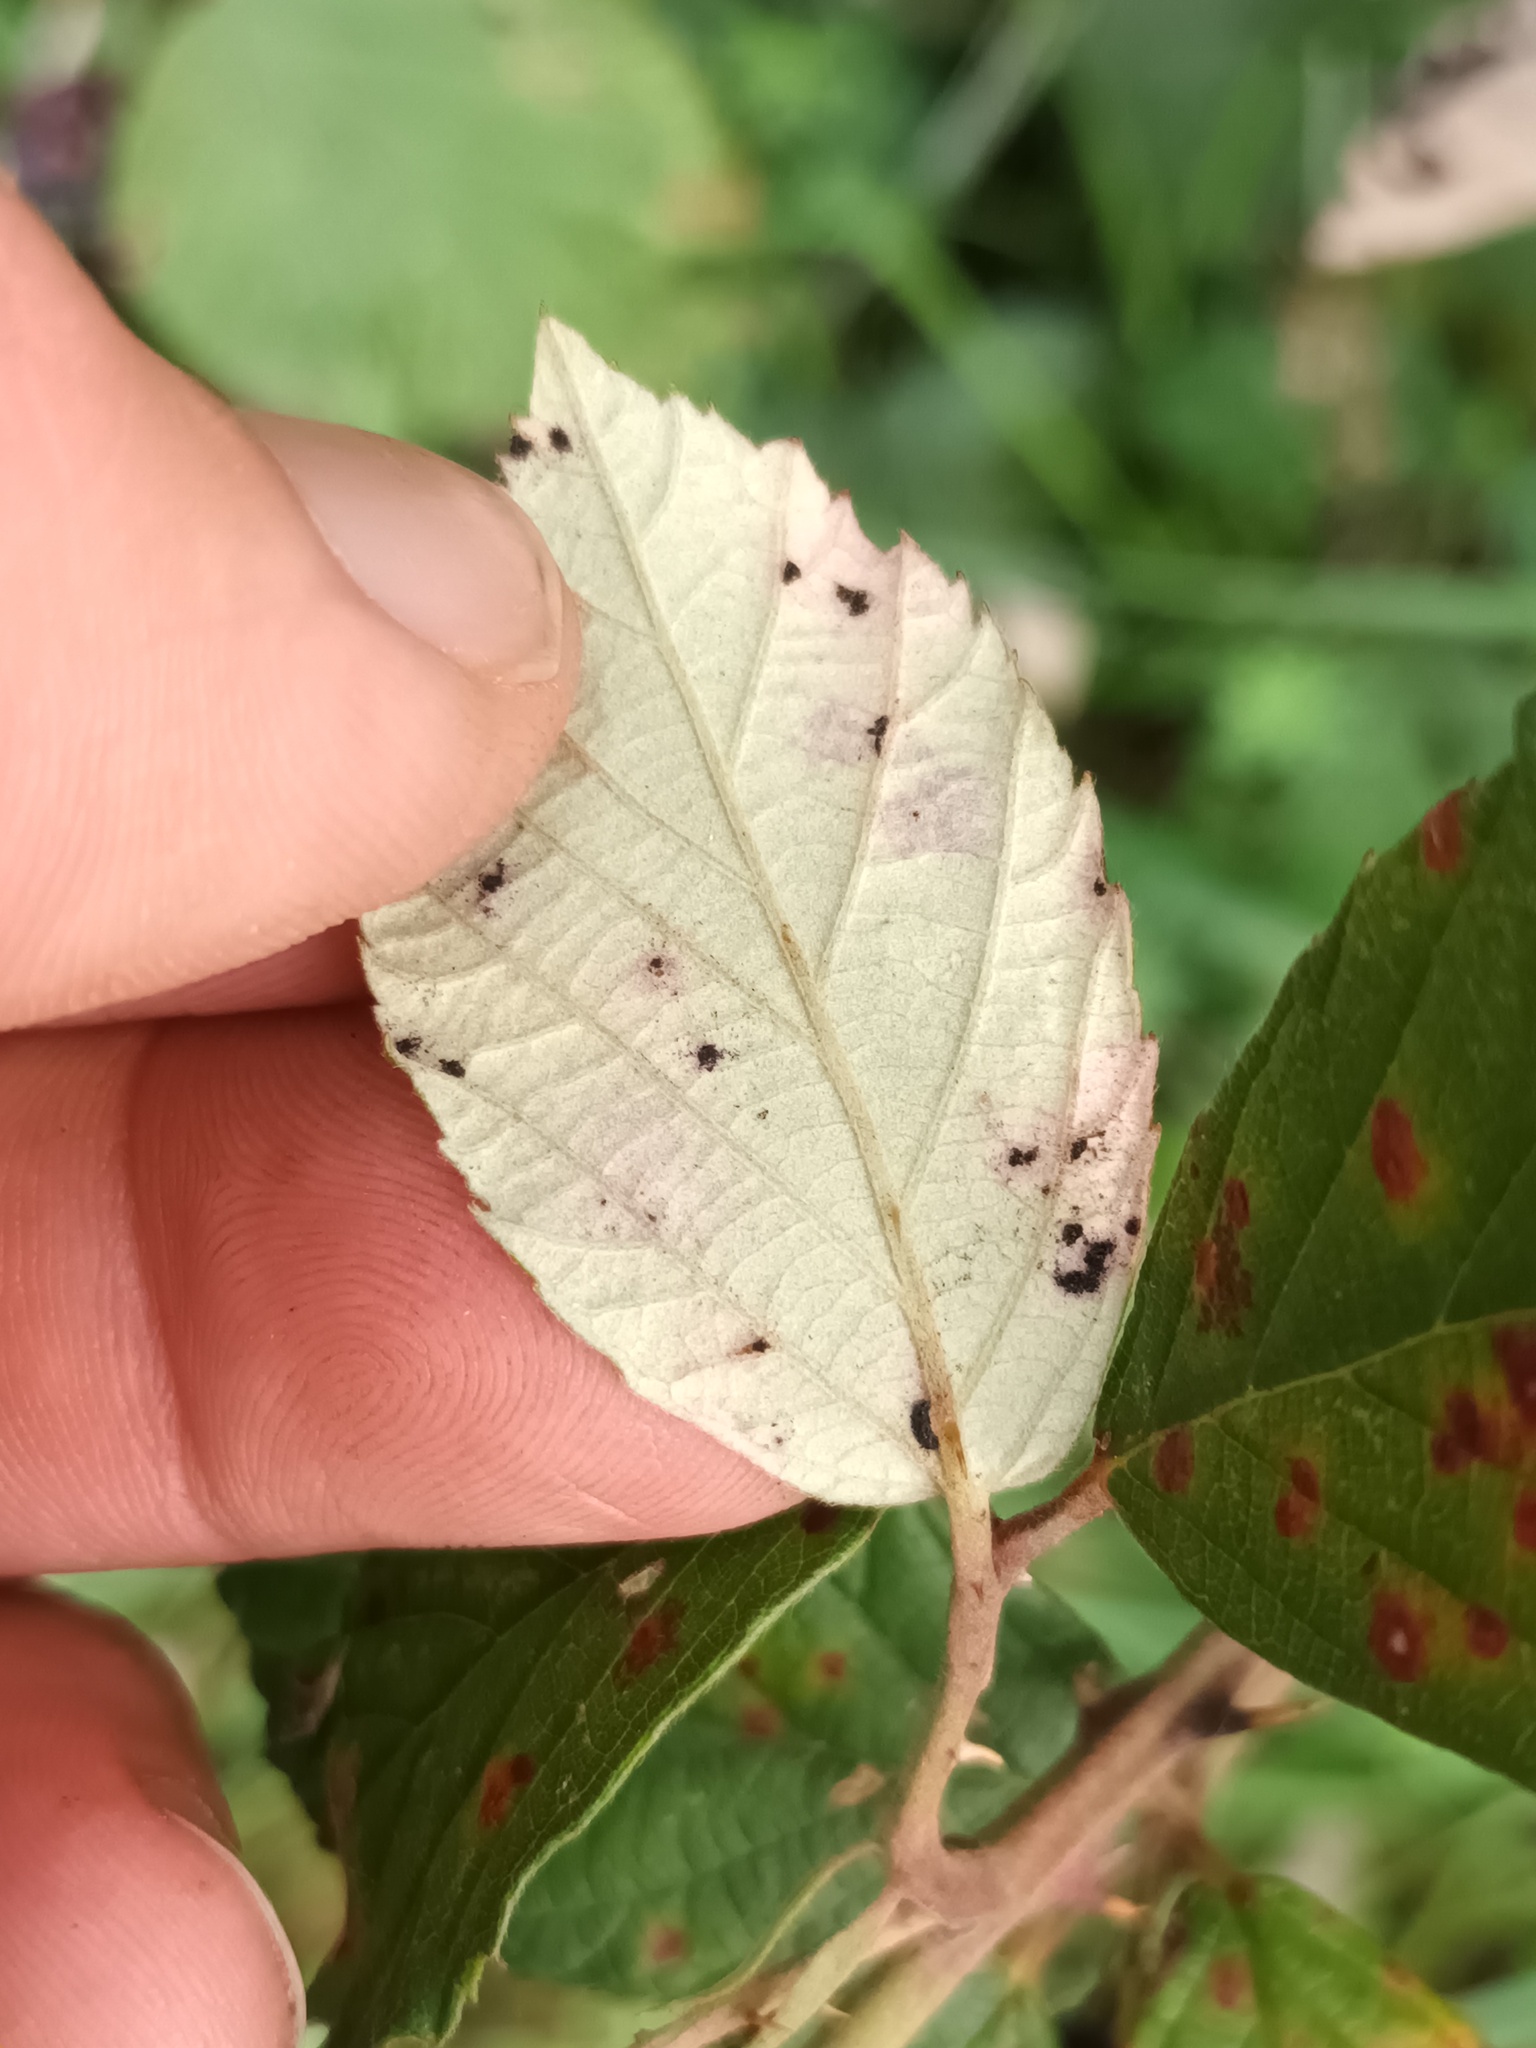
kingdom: Fungi
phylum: Basidiomycota
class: Pucciniomycetes
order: Pucciniales
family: Phragmidiaceae
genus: Phragmidium
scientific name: Phragmidium violaceum
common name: Violet bramble rust
